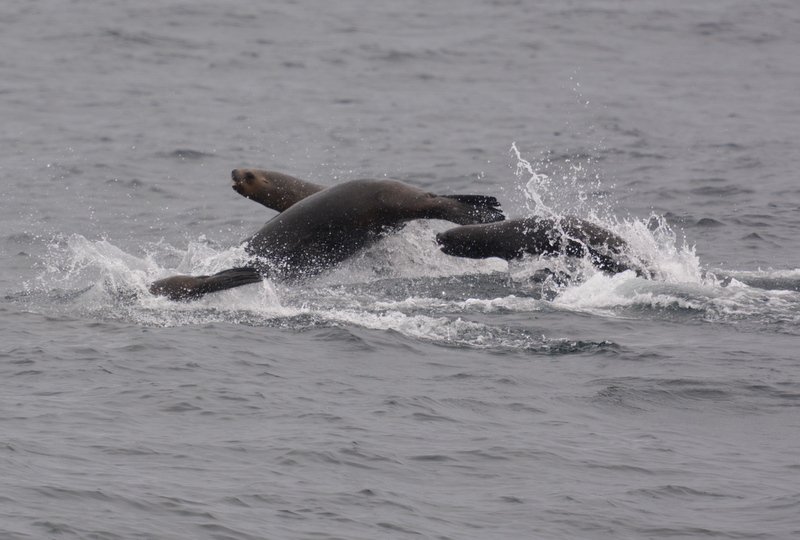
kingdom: Animalia
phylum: Chordata
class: Mammalia
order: Carnivora
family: Otariidae
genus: Otaria
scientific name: Otaria byronia
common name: South american sea lion
